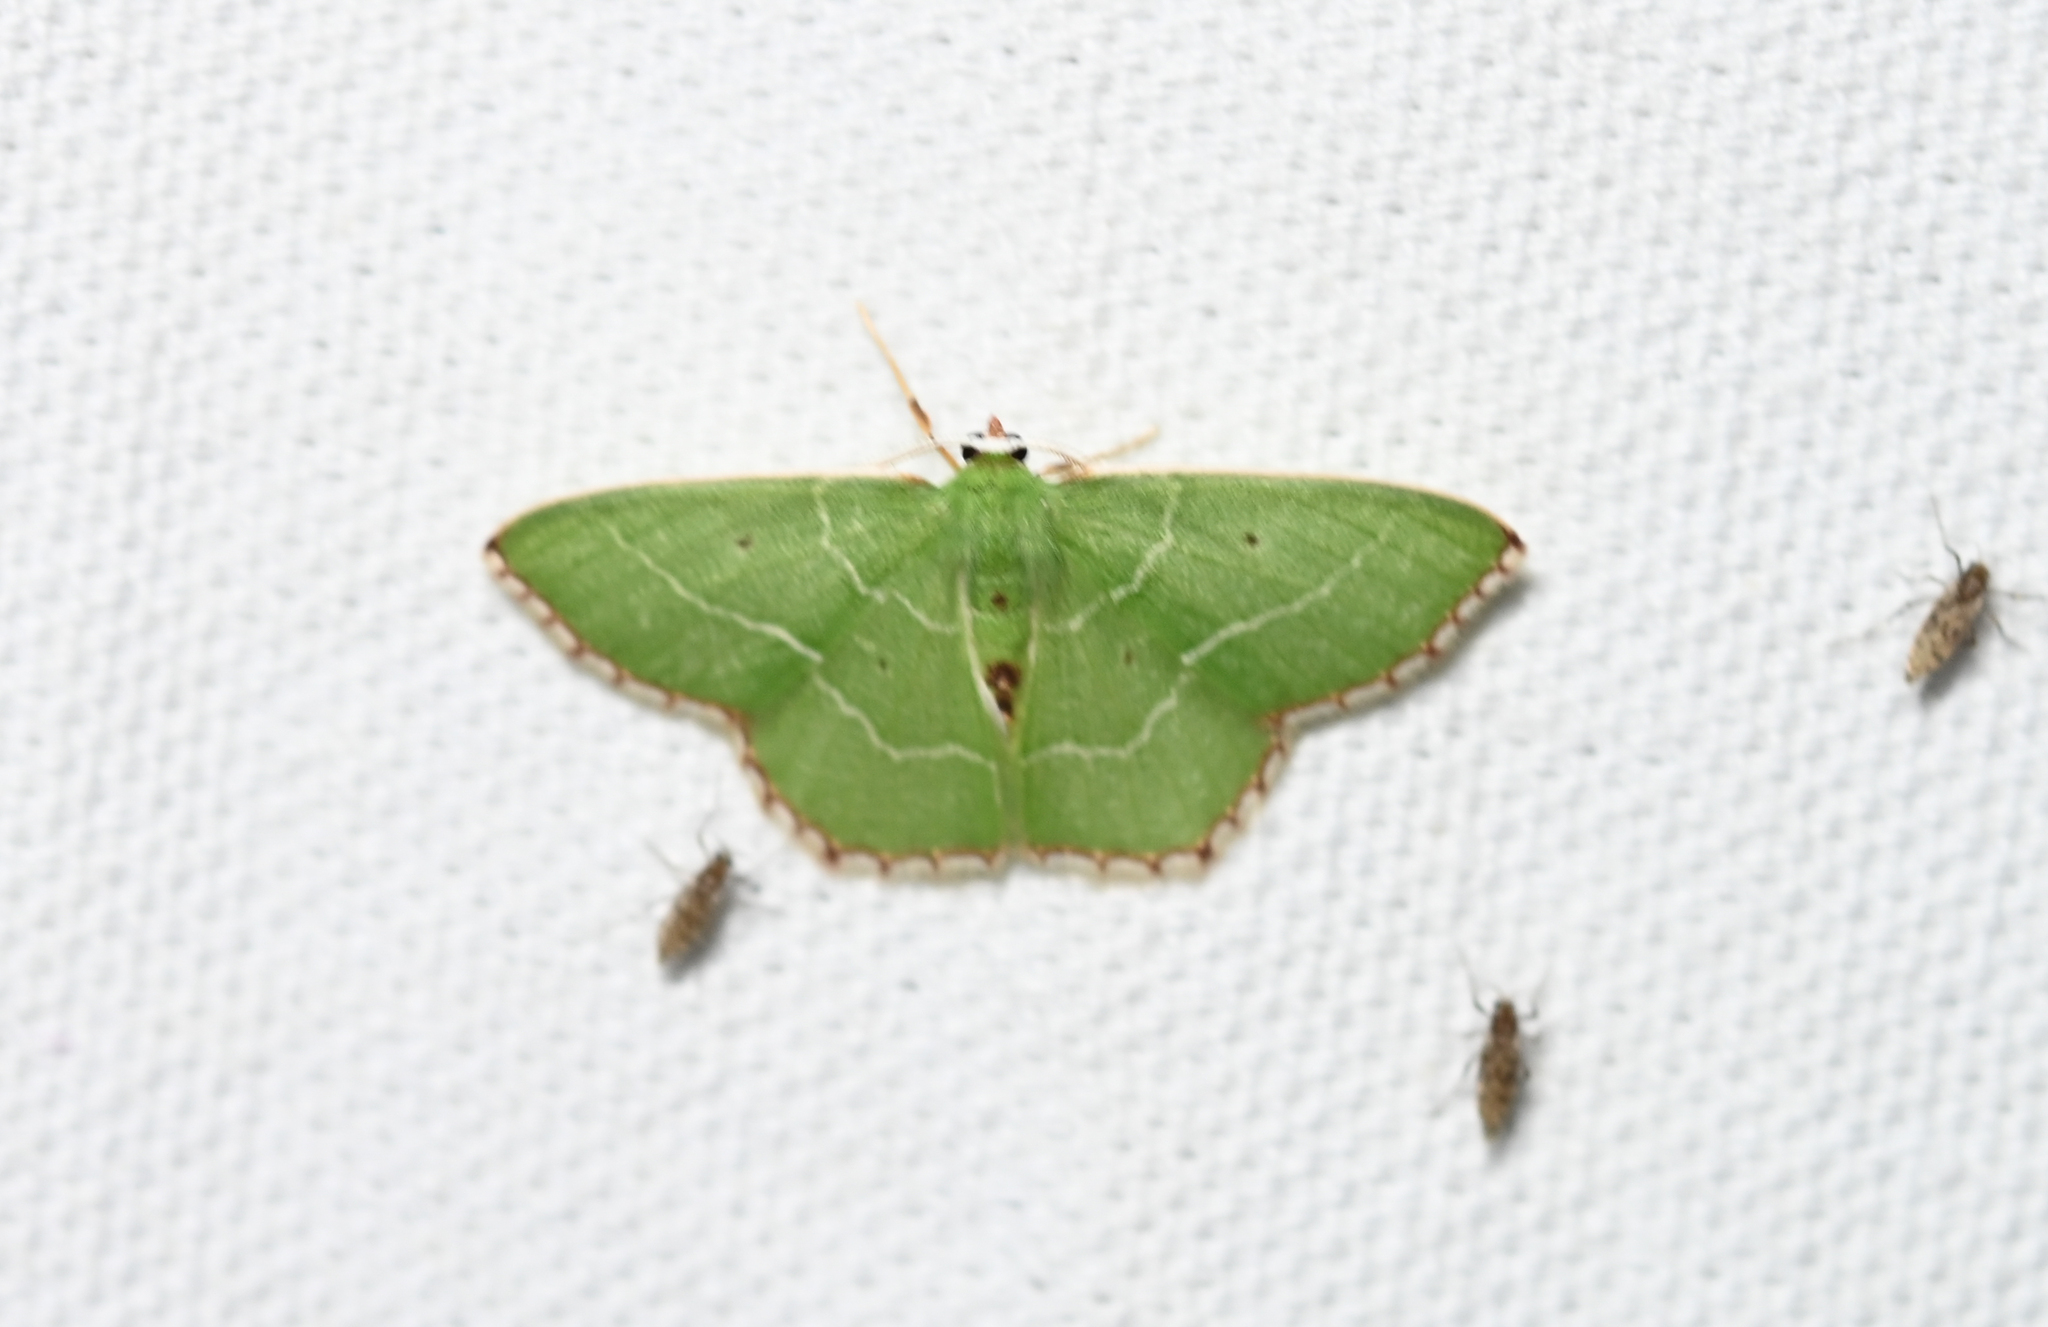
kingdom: Animalia
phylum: Arthropoda
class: Insecta
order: Lepidoptera
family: Geometridae
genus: Nemoria
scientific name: Nemoria saturiba
